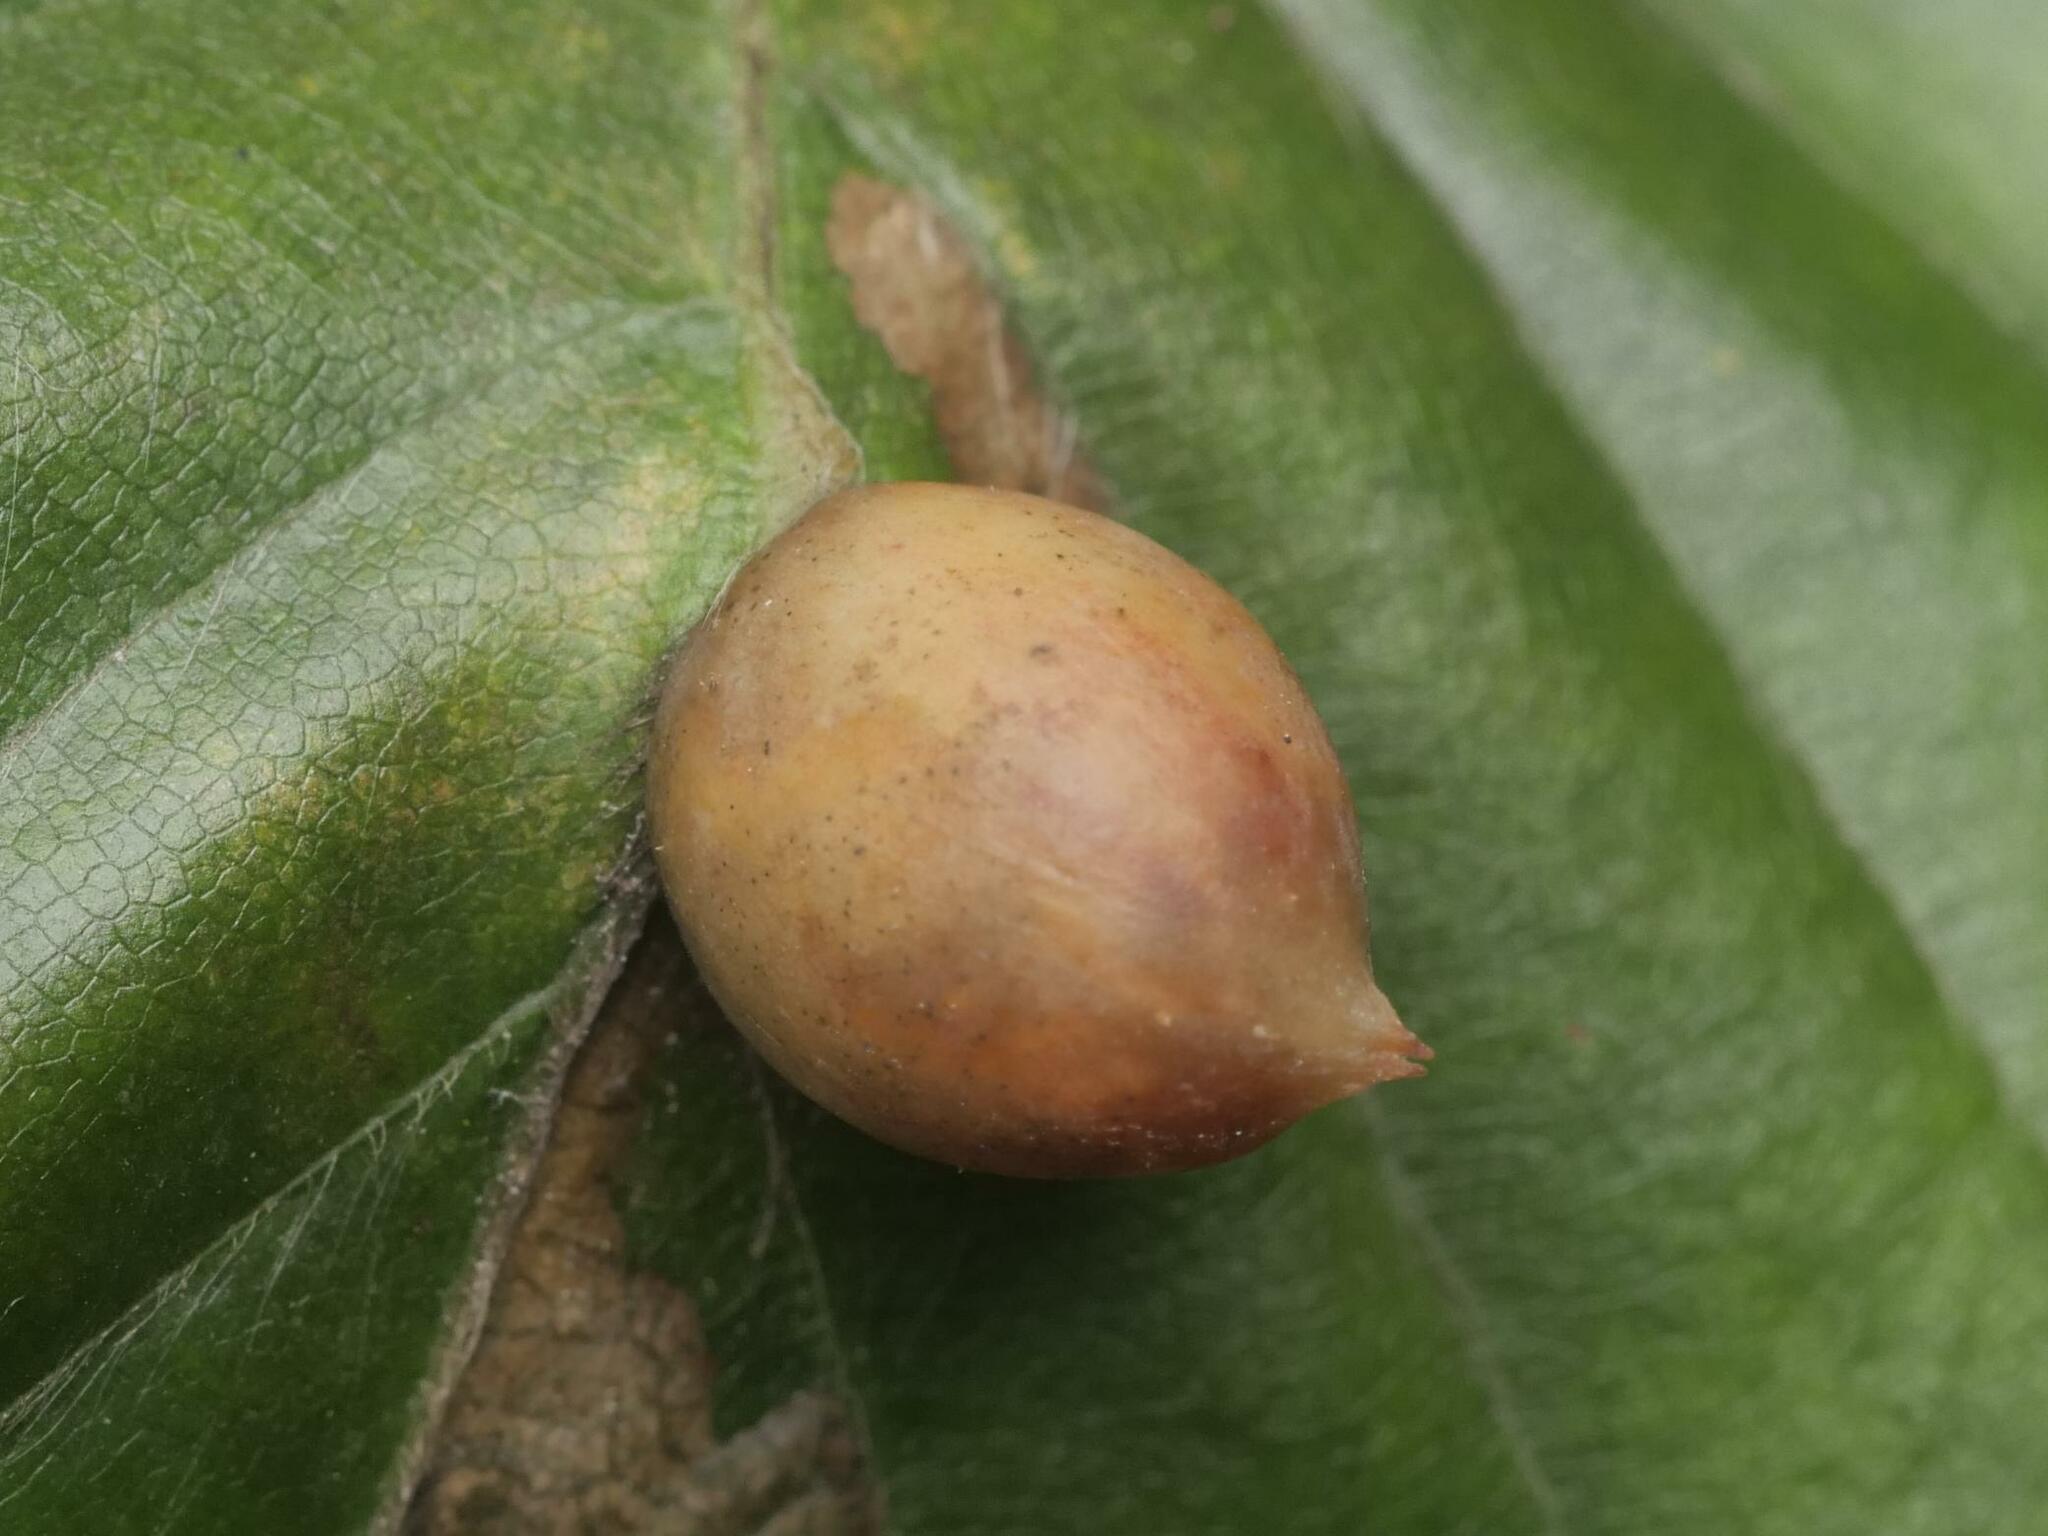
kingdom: Animalia
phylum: Arthropoda
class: Insecta
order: Diptera
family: Cecidomyiidae
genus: Mikiola
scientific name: Mikiola fagi
